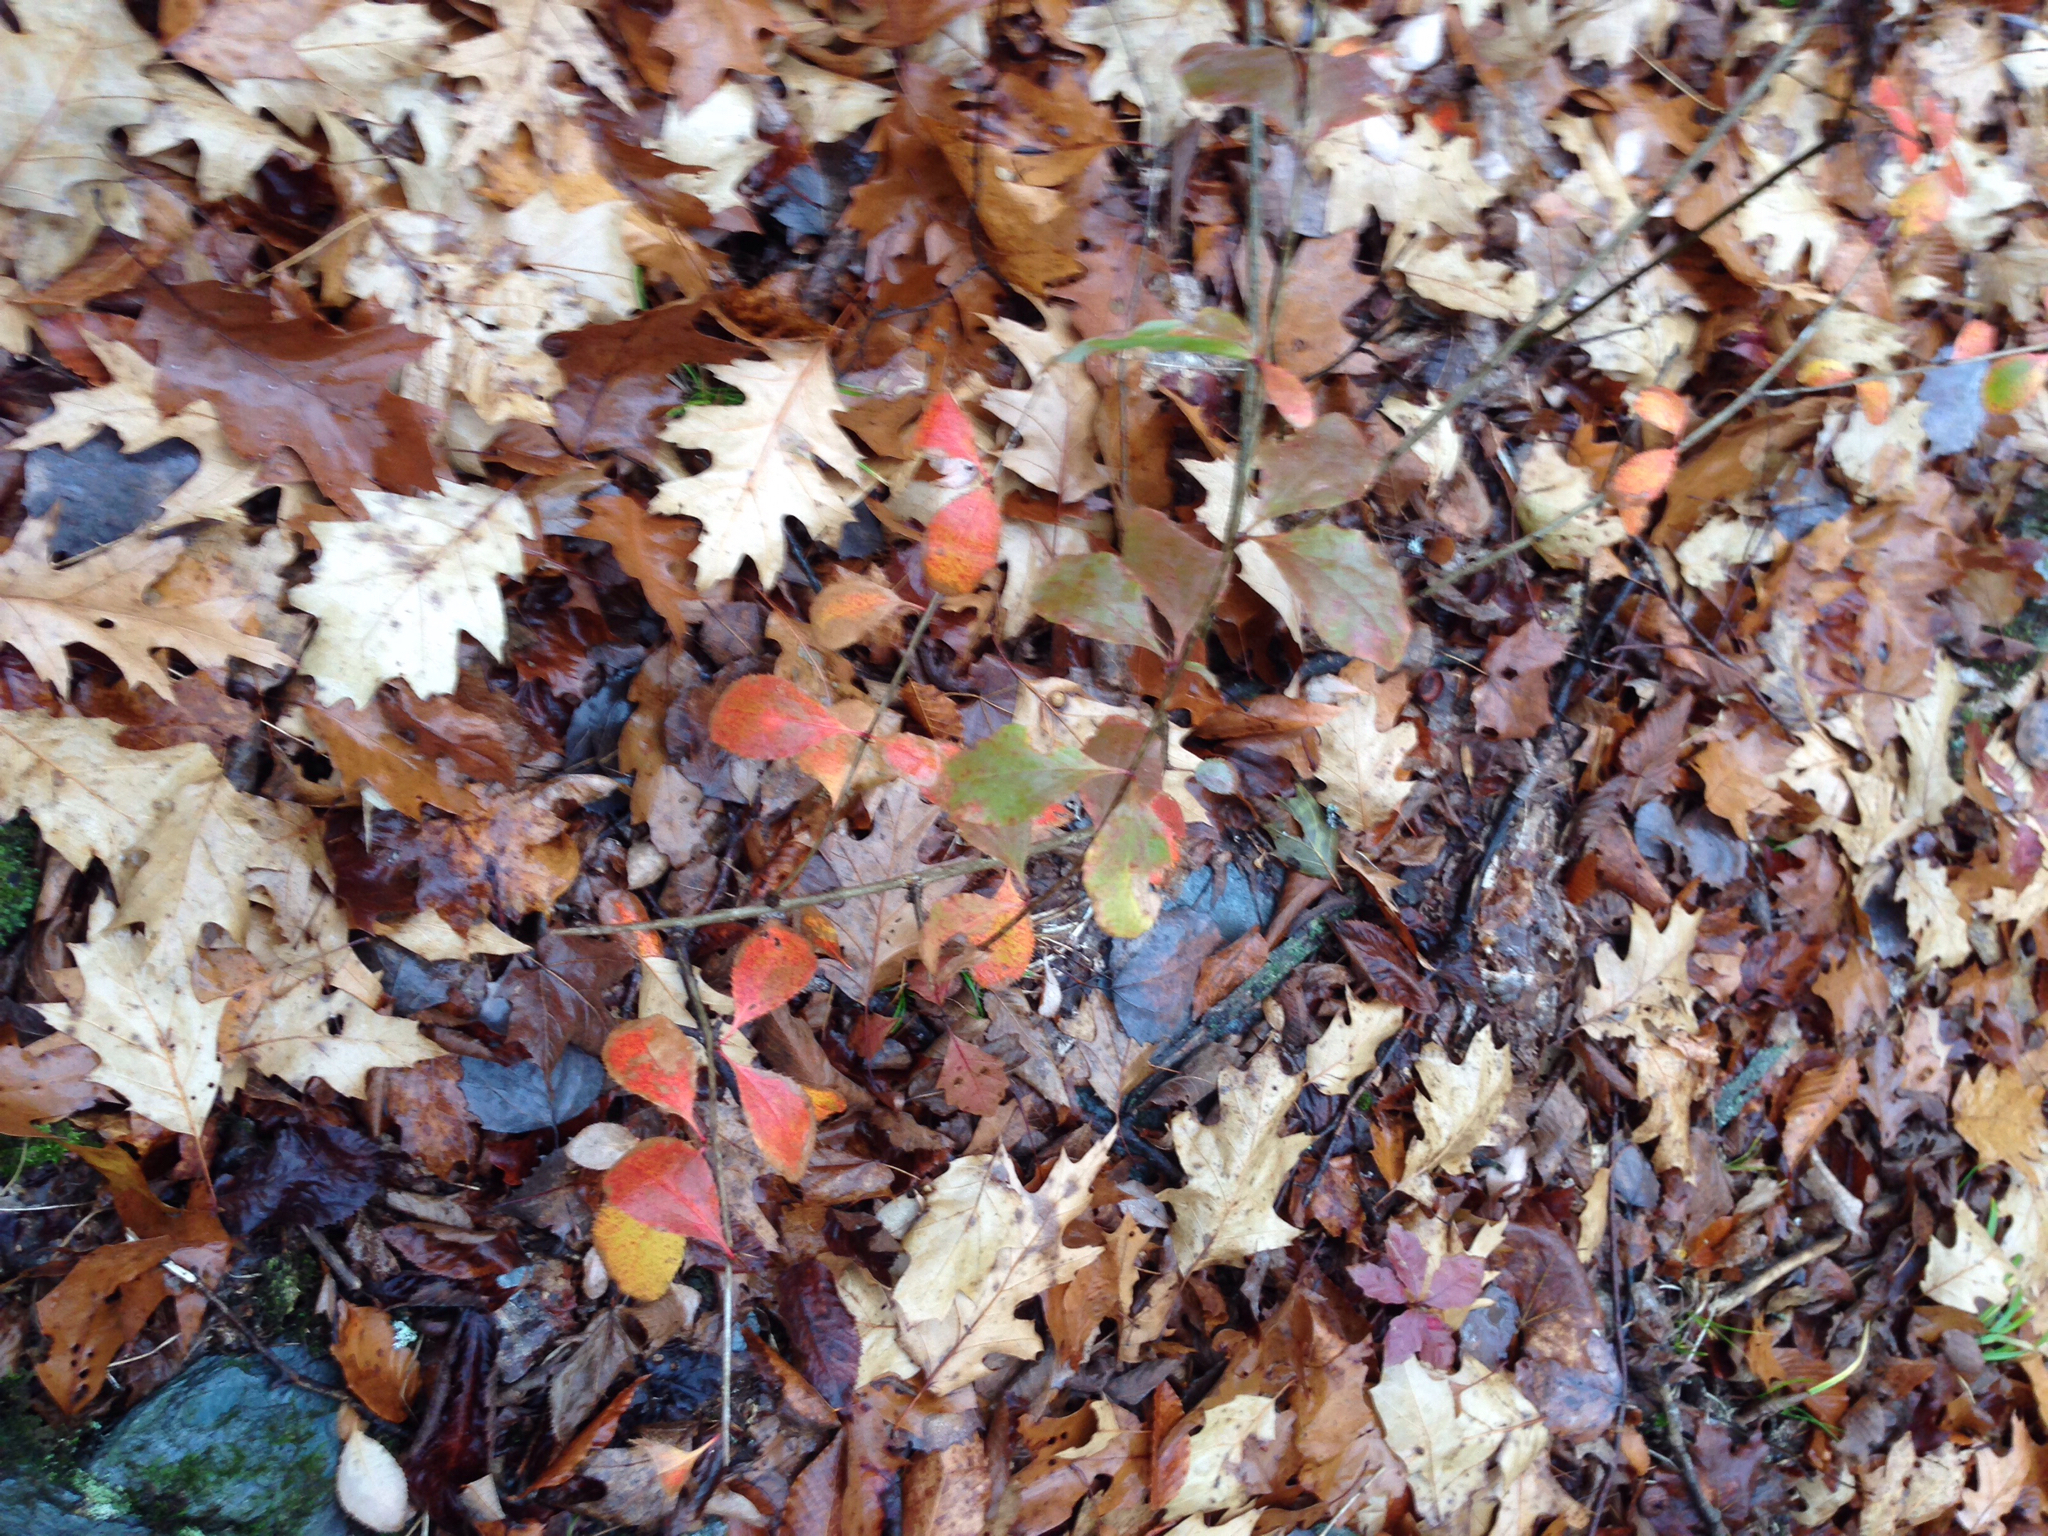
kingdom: Plantae
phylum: Tracheophyta
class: Magnoliopsida
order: Ranunculales
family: Berberidaceae
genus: Berberis
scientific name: Berberis vulgaris
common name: Barberry
